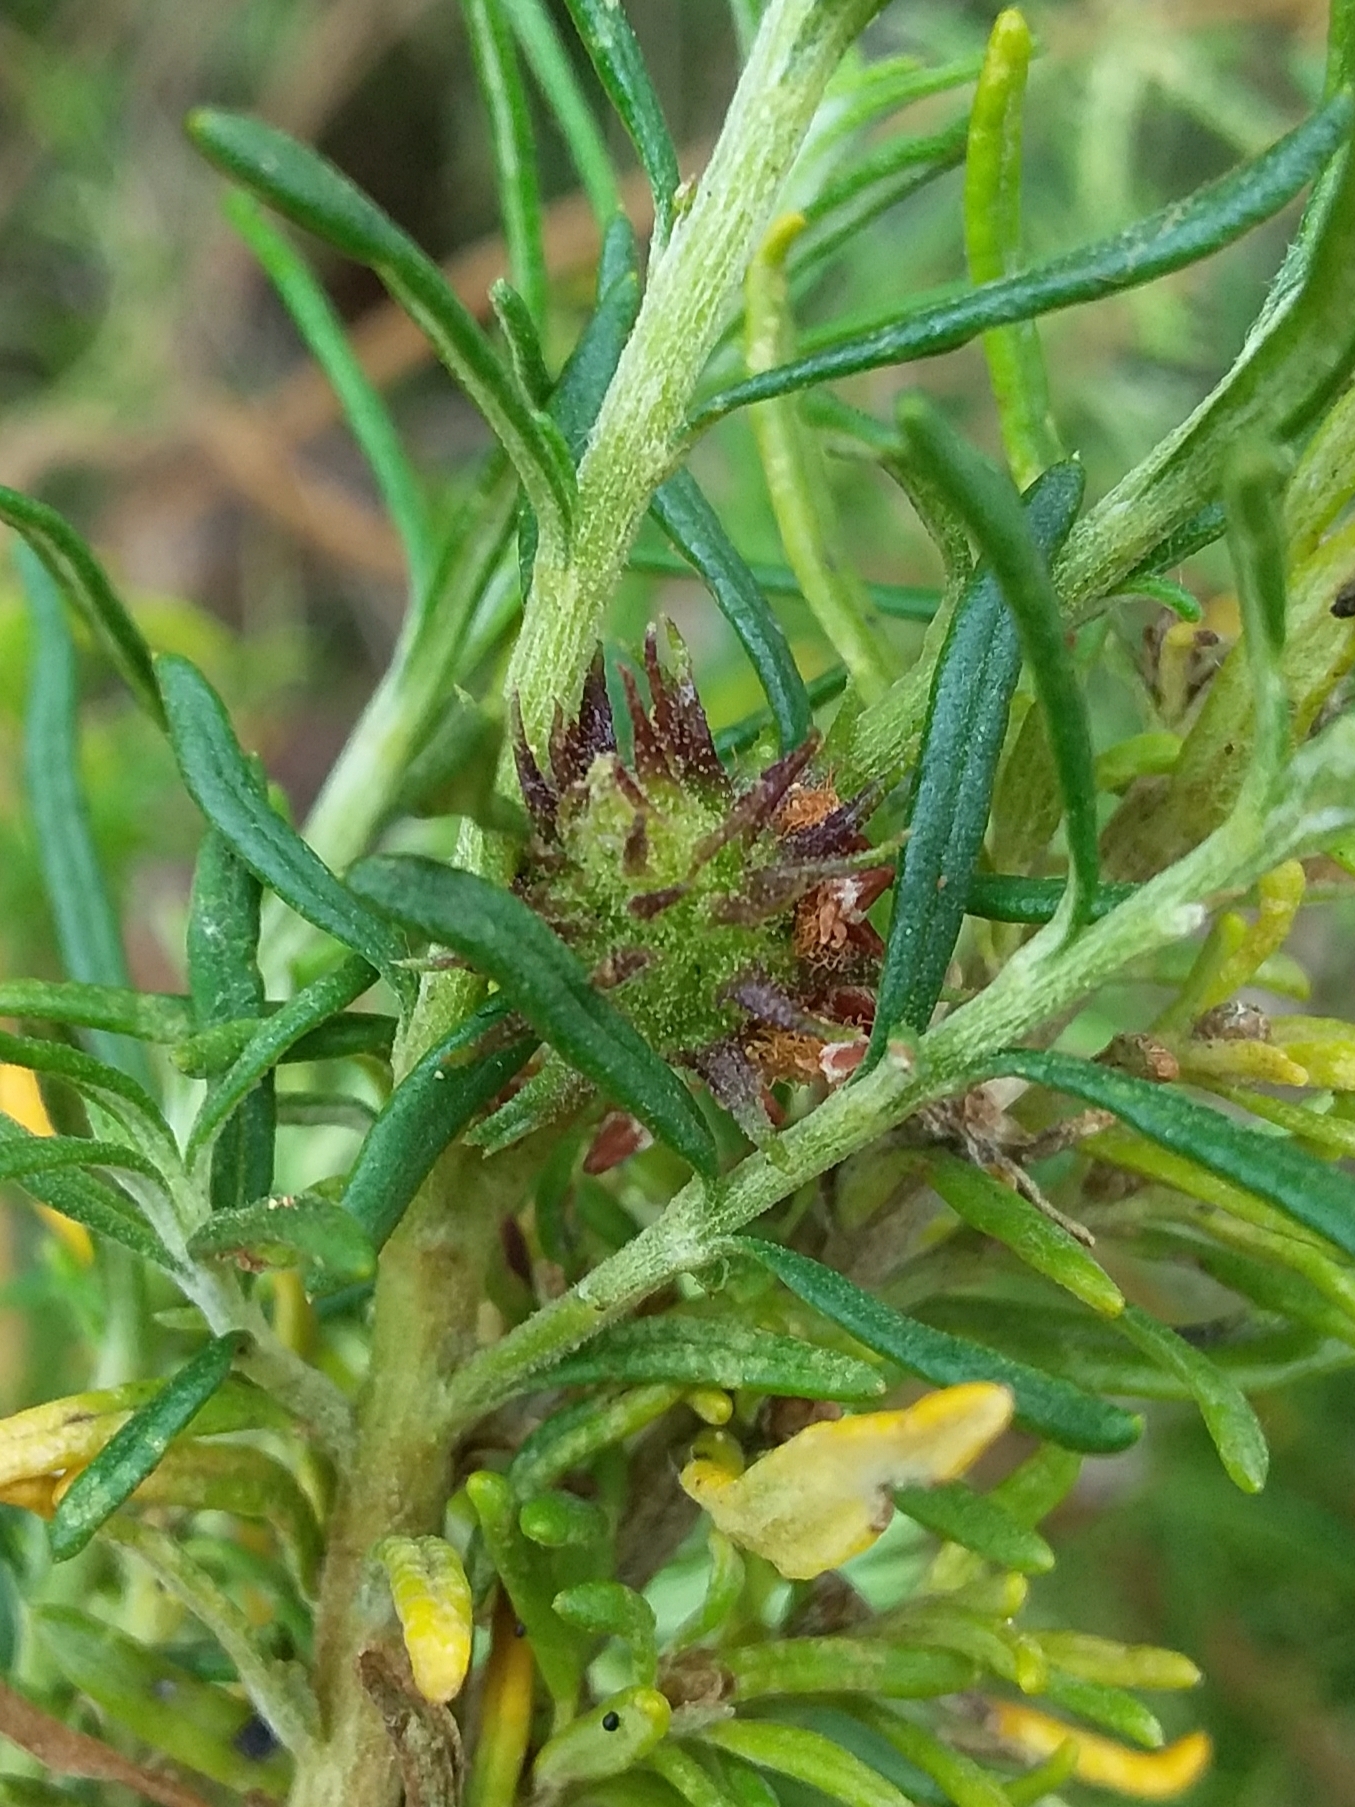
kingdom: Animalia
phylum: Arthropoda
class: Insecta
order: Diptera
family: Cecidomyiidae
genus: Trigonomyia
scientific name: Trigonomyia ananas
